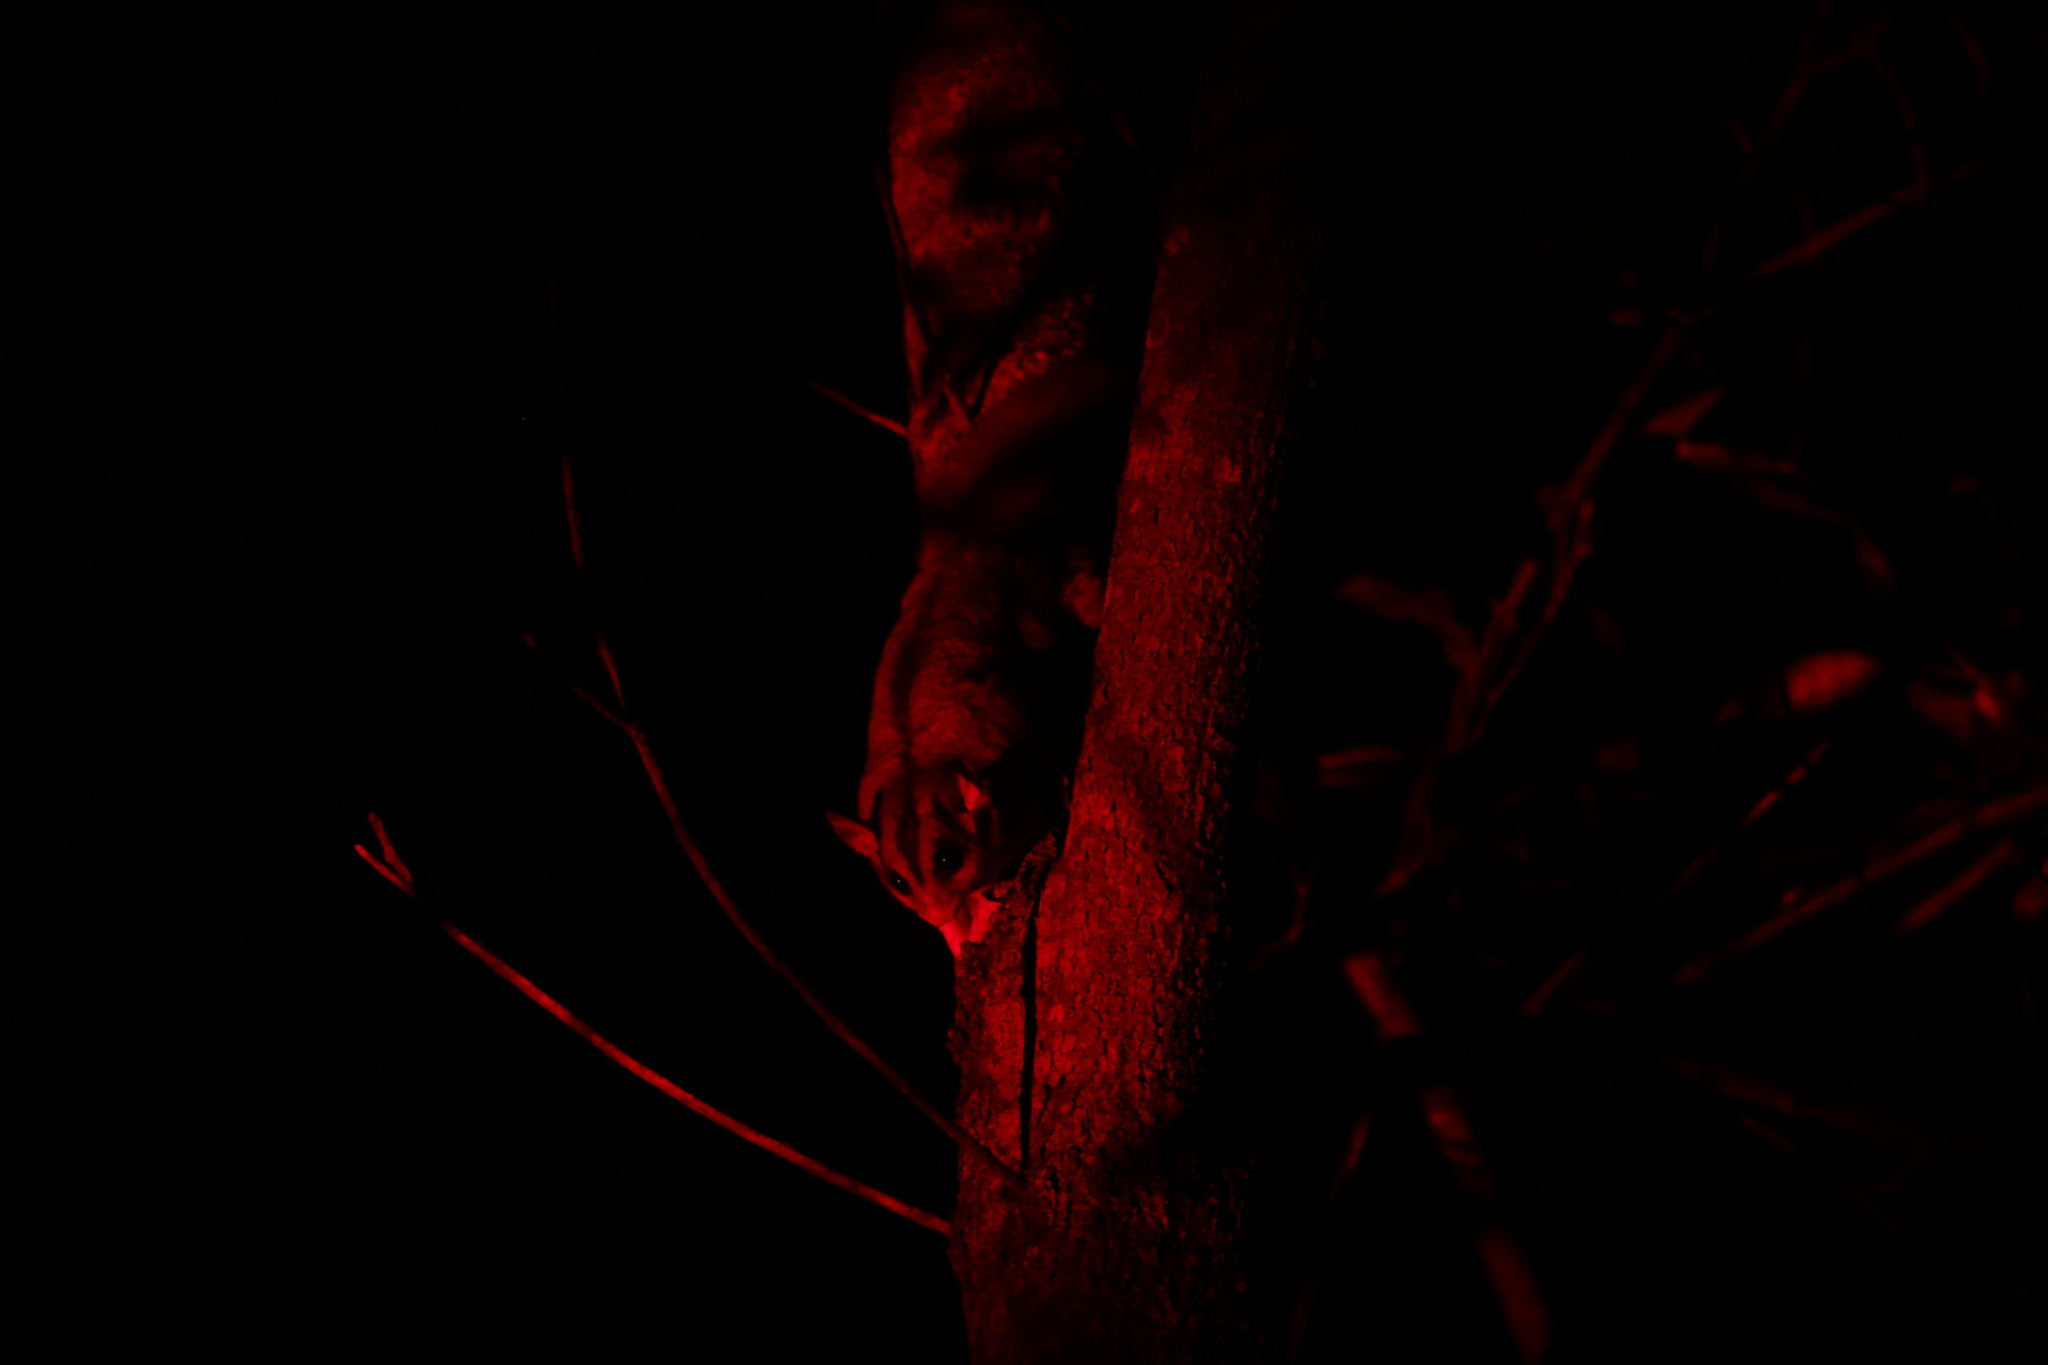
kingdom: Animalia
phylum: Chordata
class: Mammalia
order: Diprotodontia
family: Petauridae
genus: Petaurus
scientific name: Petaurus breviceps
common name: Sugar glider
